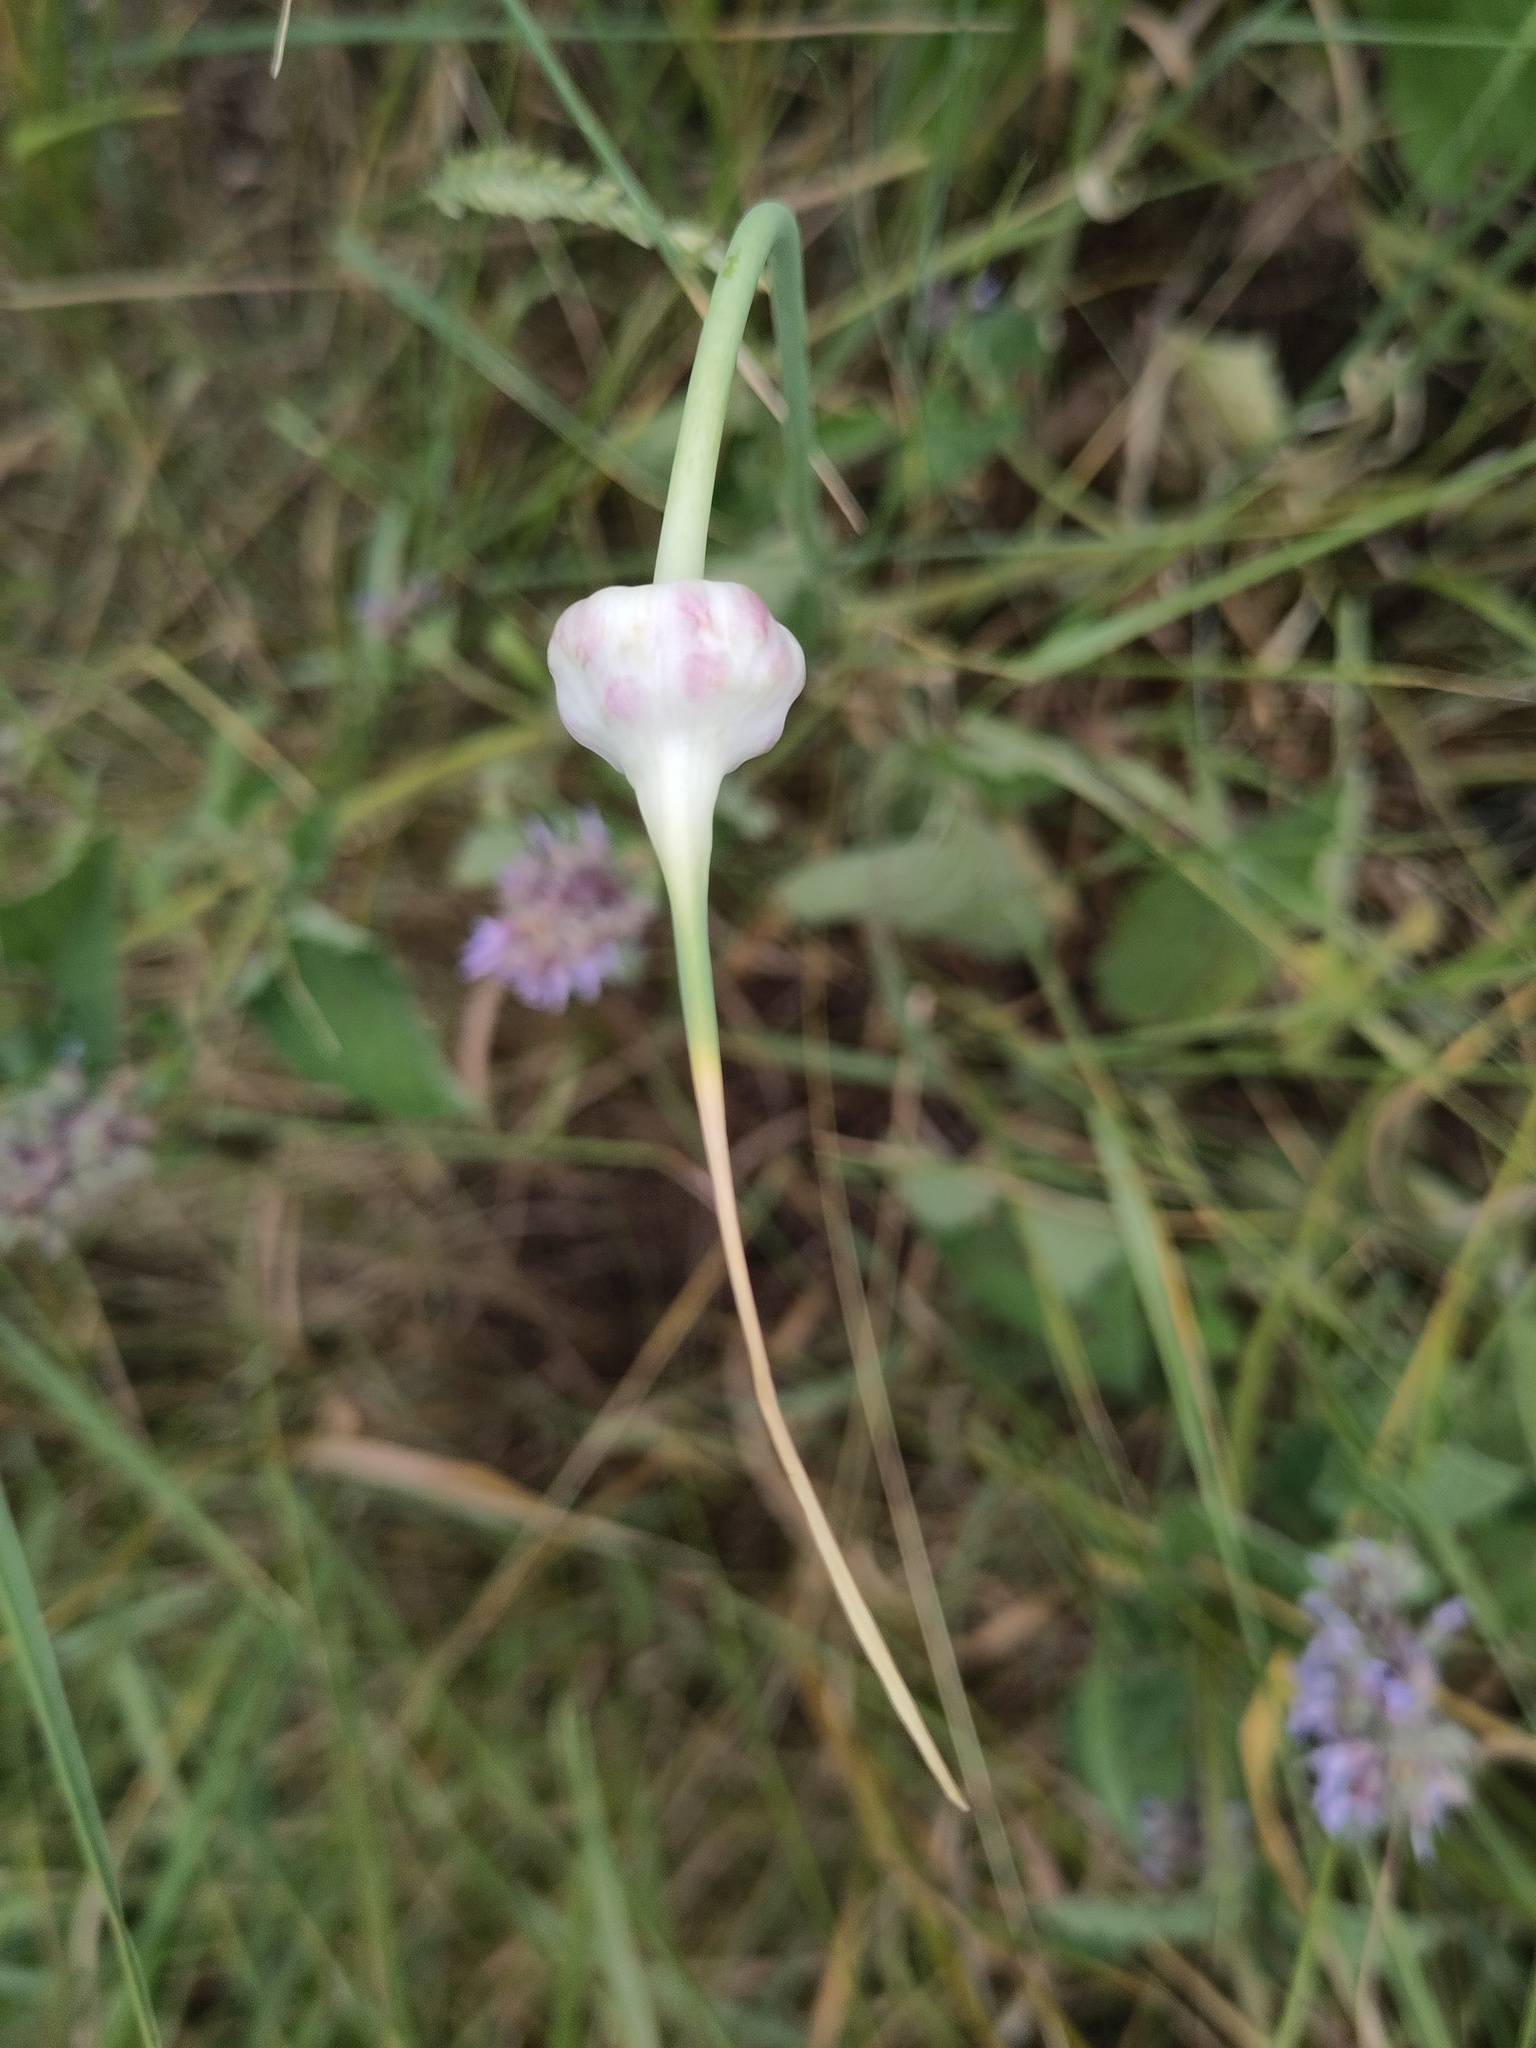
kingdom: Plantae
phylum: Tracheophyta
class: Liliopsida
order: Asparagales
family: Amaryllidaceae
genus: Allium
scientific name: Allium sativum
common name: Garlic
